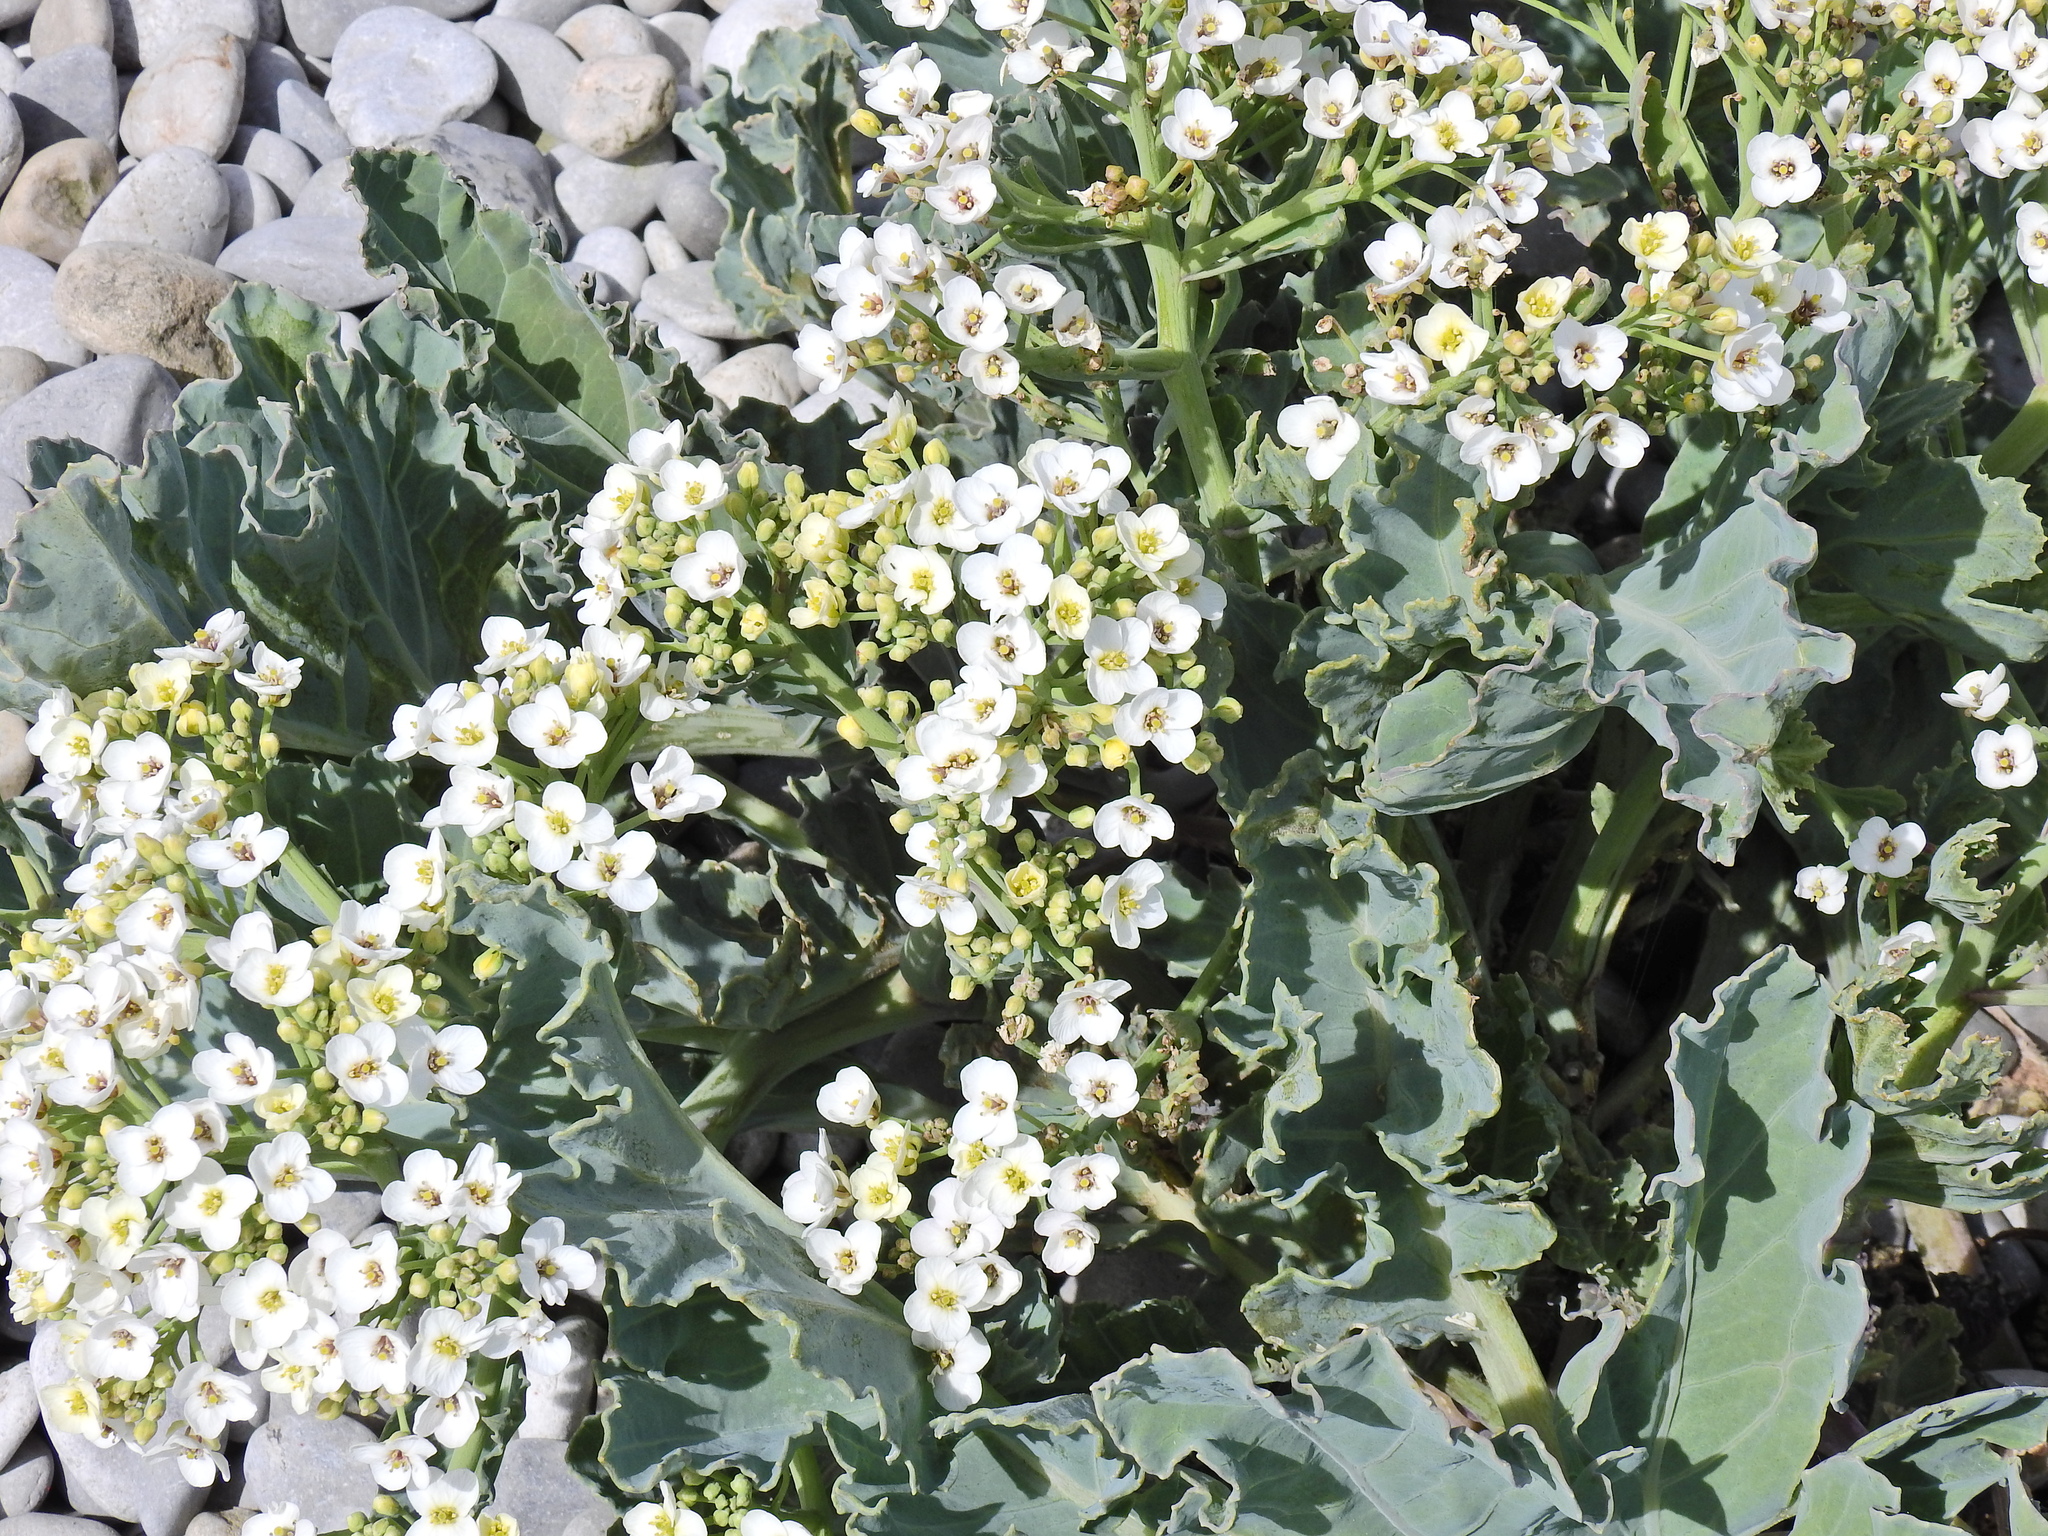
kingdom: Plantae
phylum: Tracheophyta
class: Magnoliopsida
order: Brassicales
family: Brassicaceae
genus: Crambe
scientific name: Crambe maritima
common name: Sea-kale
